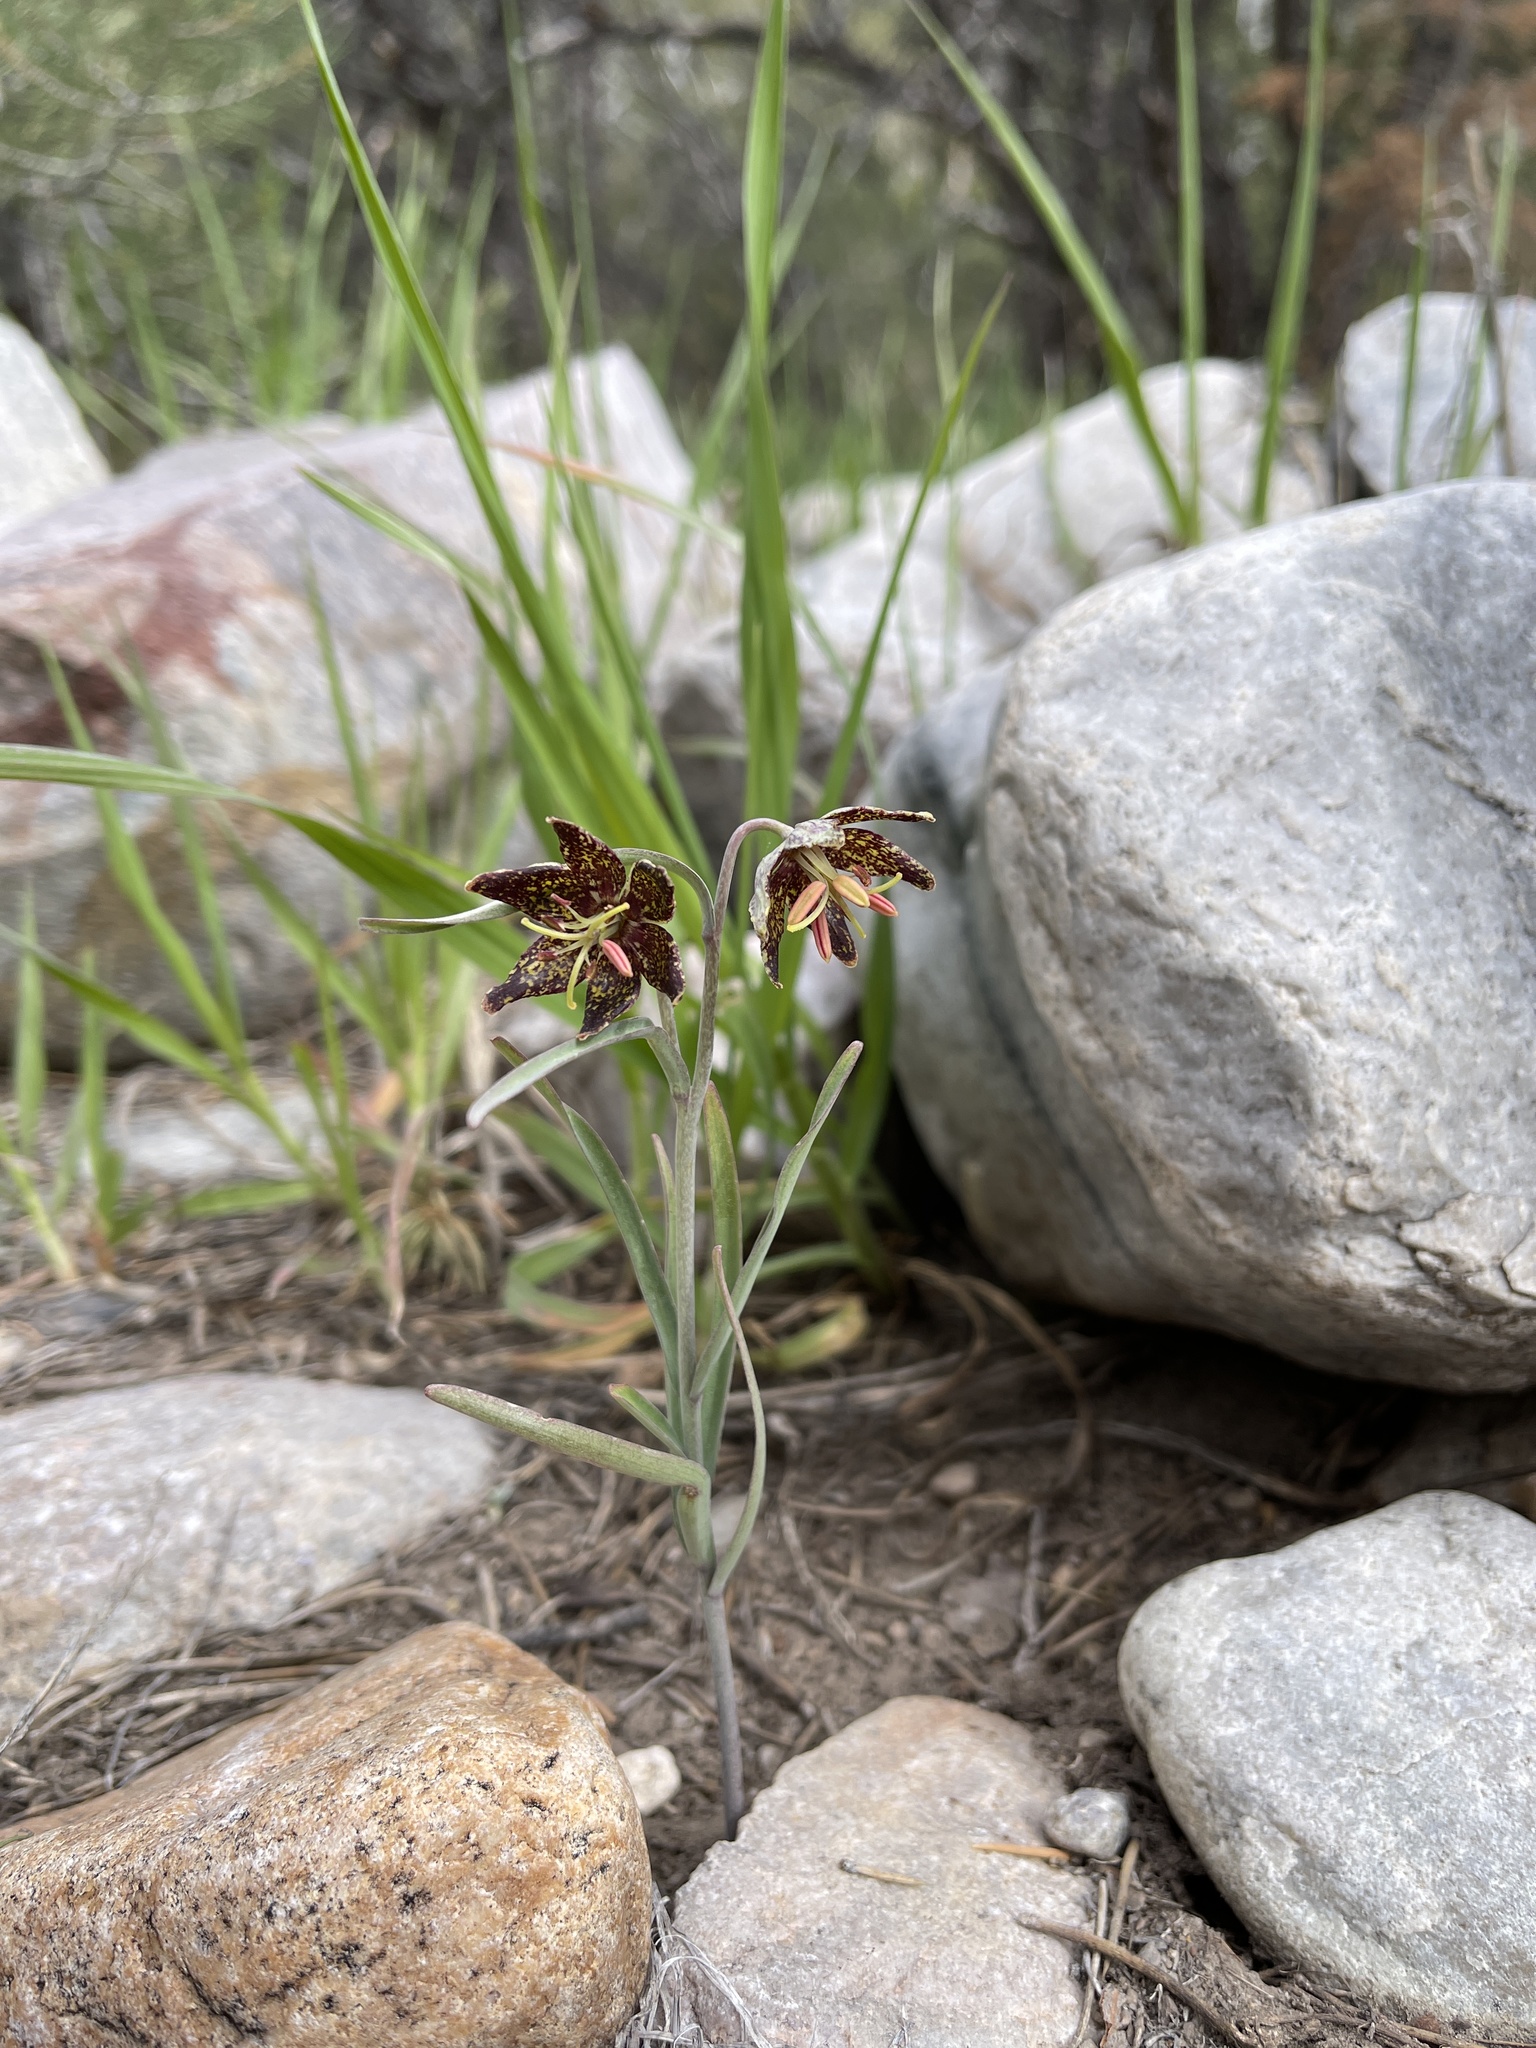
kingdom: Plantae
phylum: Tracheophyta
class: Liliopsida
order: Liliales
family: Liliaceae
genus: Fritillaria
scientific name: Fritillaria atropurpurea
